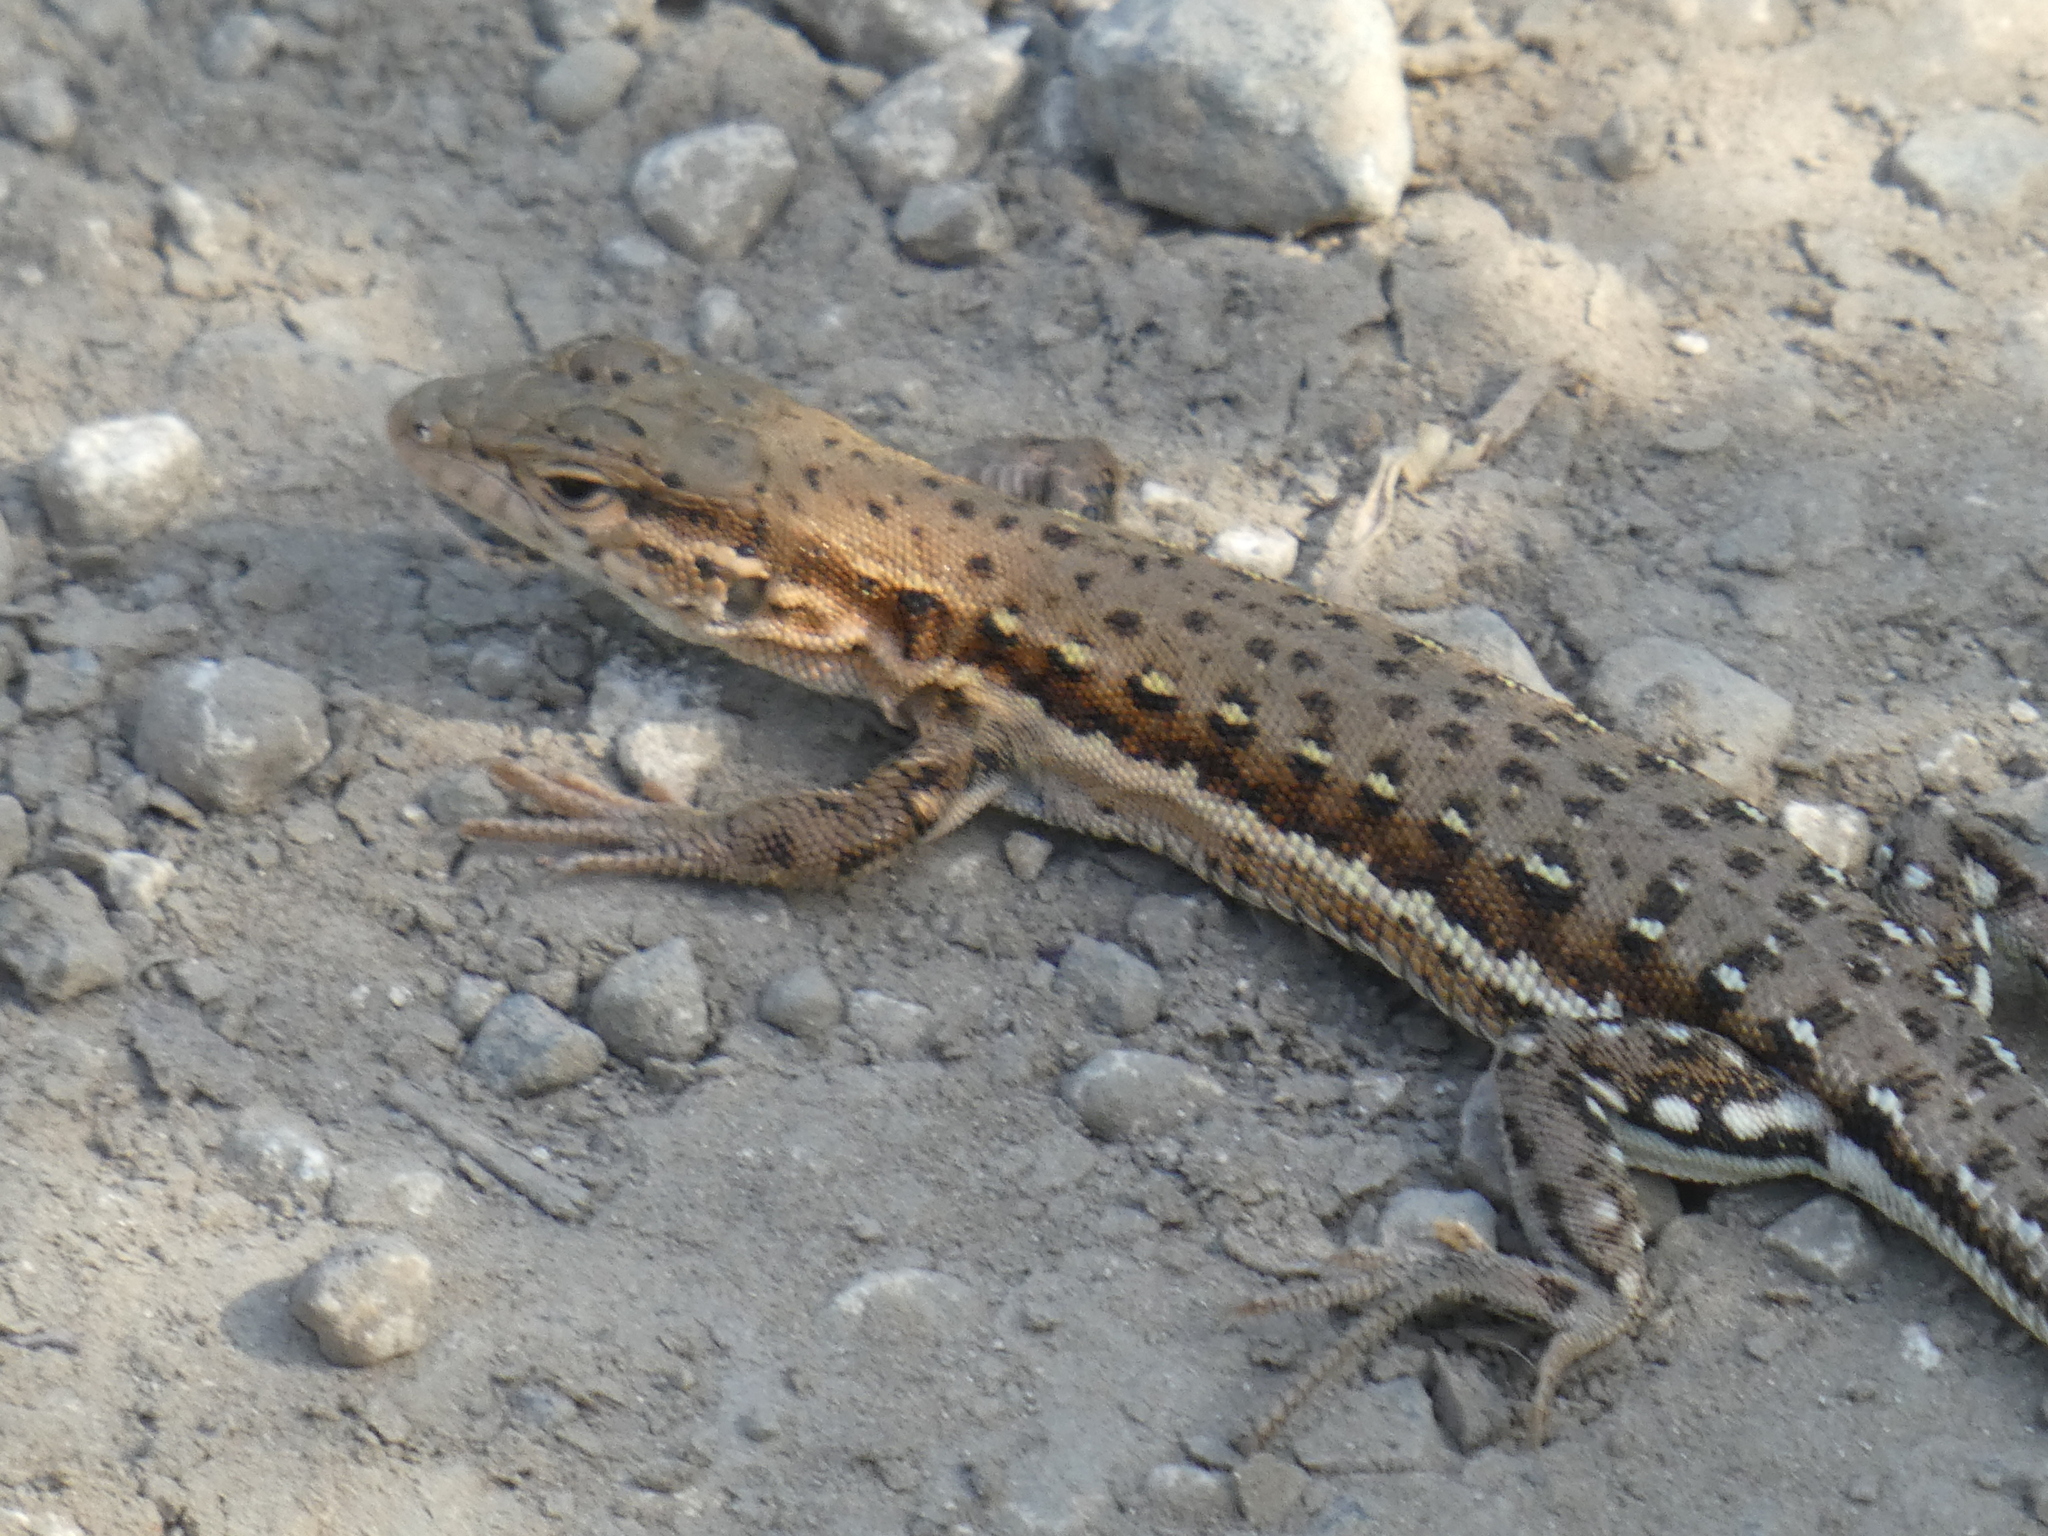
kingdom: Animalia
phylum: Chordata
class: Squamata
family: Lacertidae
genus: Eremias
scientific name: Eremias brenchleyi
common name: Ordos racerunner
